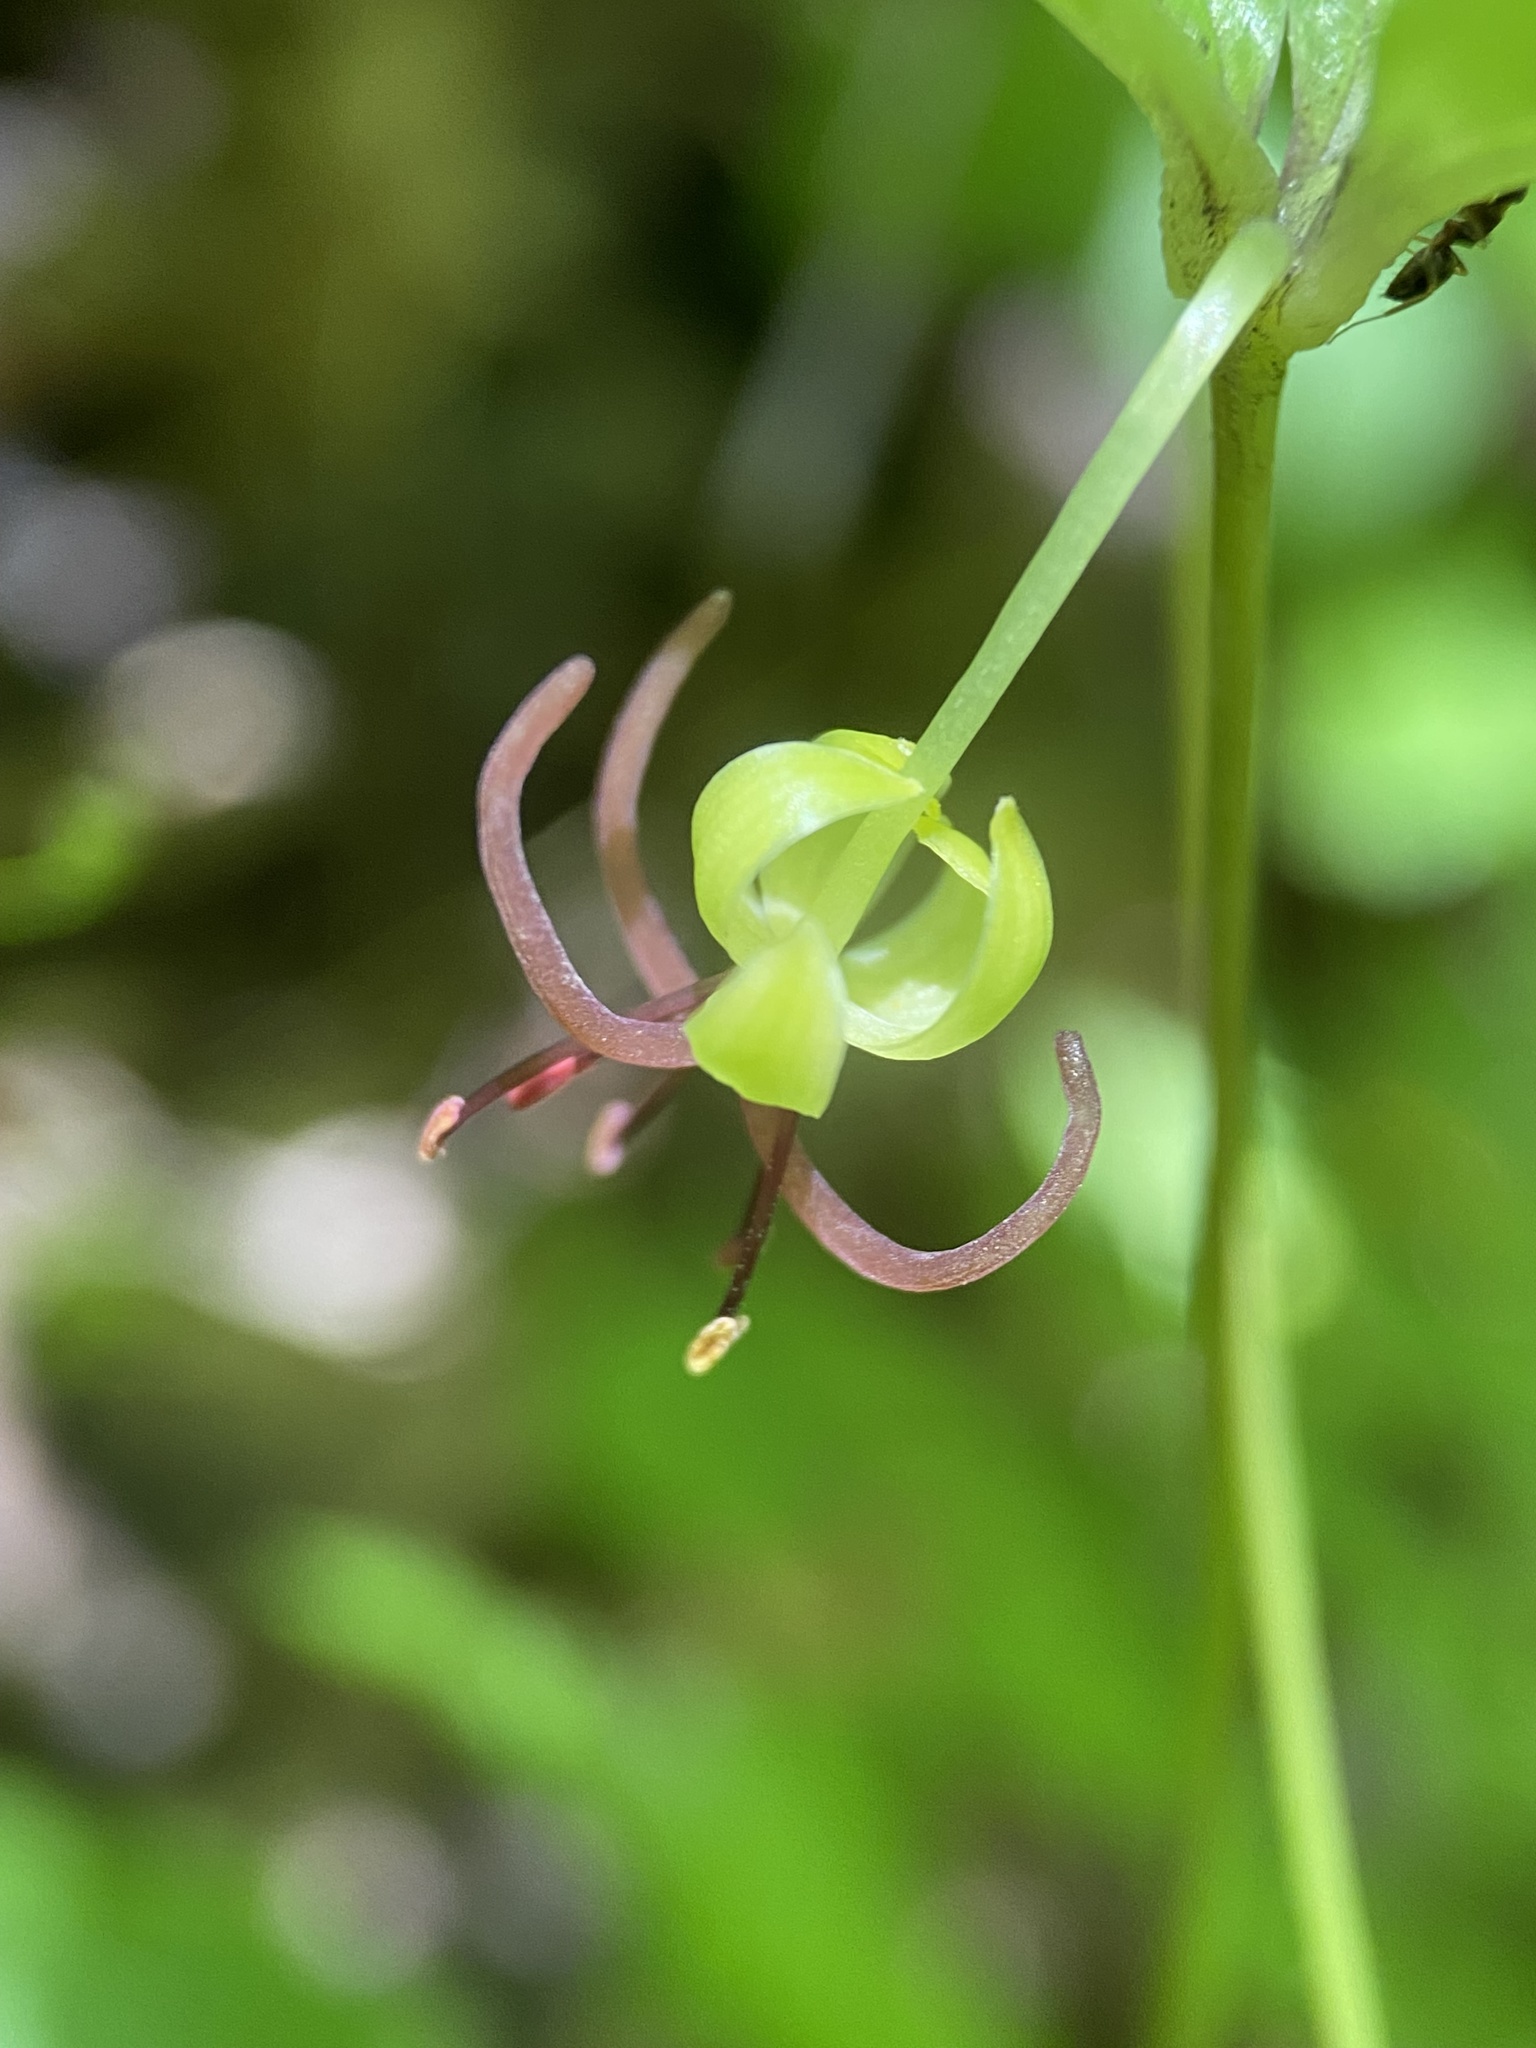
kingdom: Plantae
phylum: Tracheophyta
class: Liliopsida
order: Liliales
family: Liliaceae
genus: Medeola
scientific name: Medeola virginiana
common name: Indian cucumber-root
